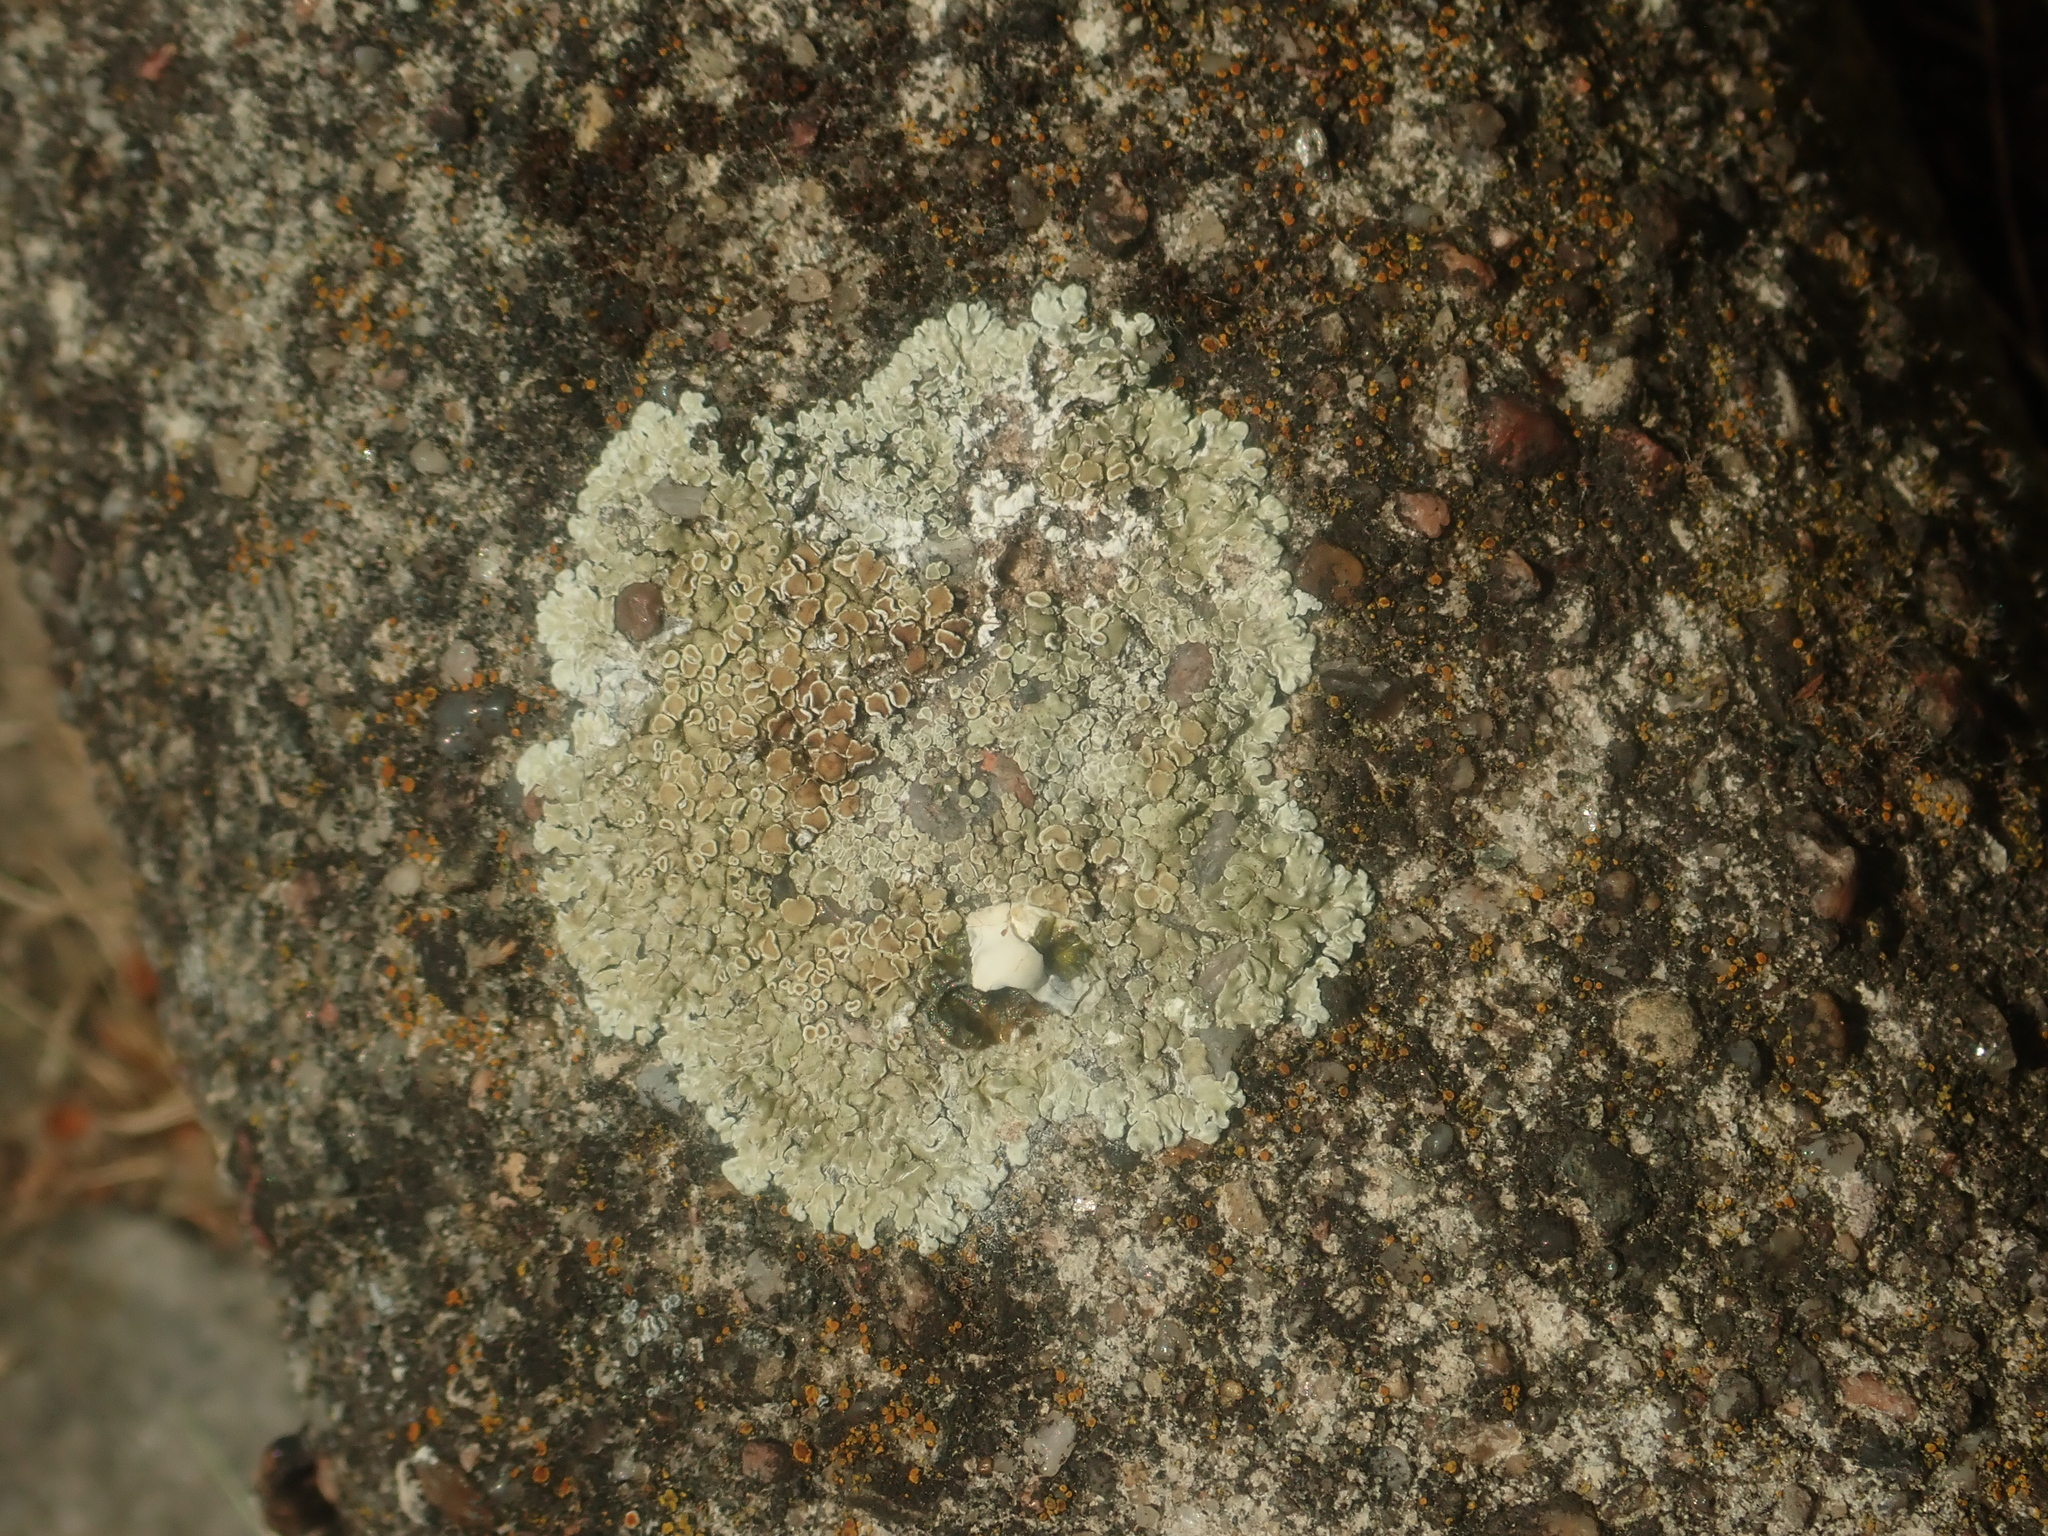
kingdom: Fungi
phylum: Ascomycota
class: Lecanoromycetes
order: Lecanorales
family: Lecanoraceae
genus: Protoparmeliopsis
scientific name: Protoparmeliopsis muralis
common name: Stonewall rim lichen
